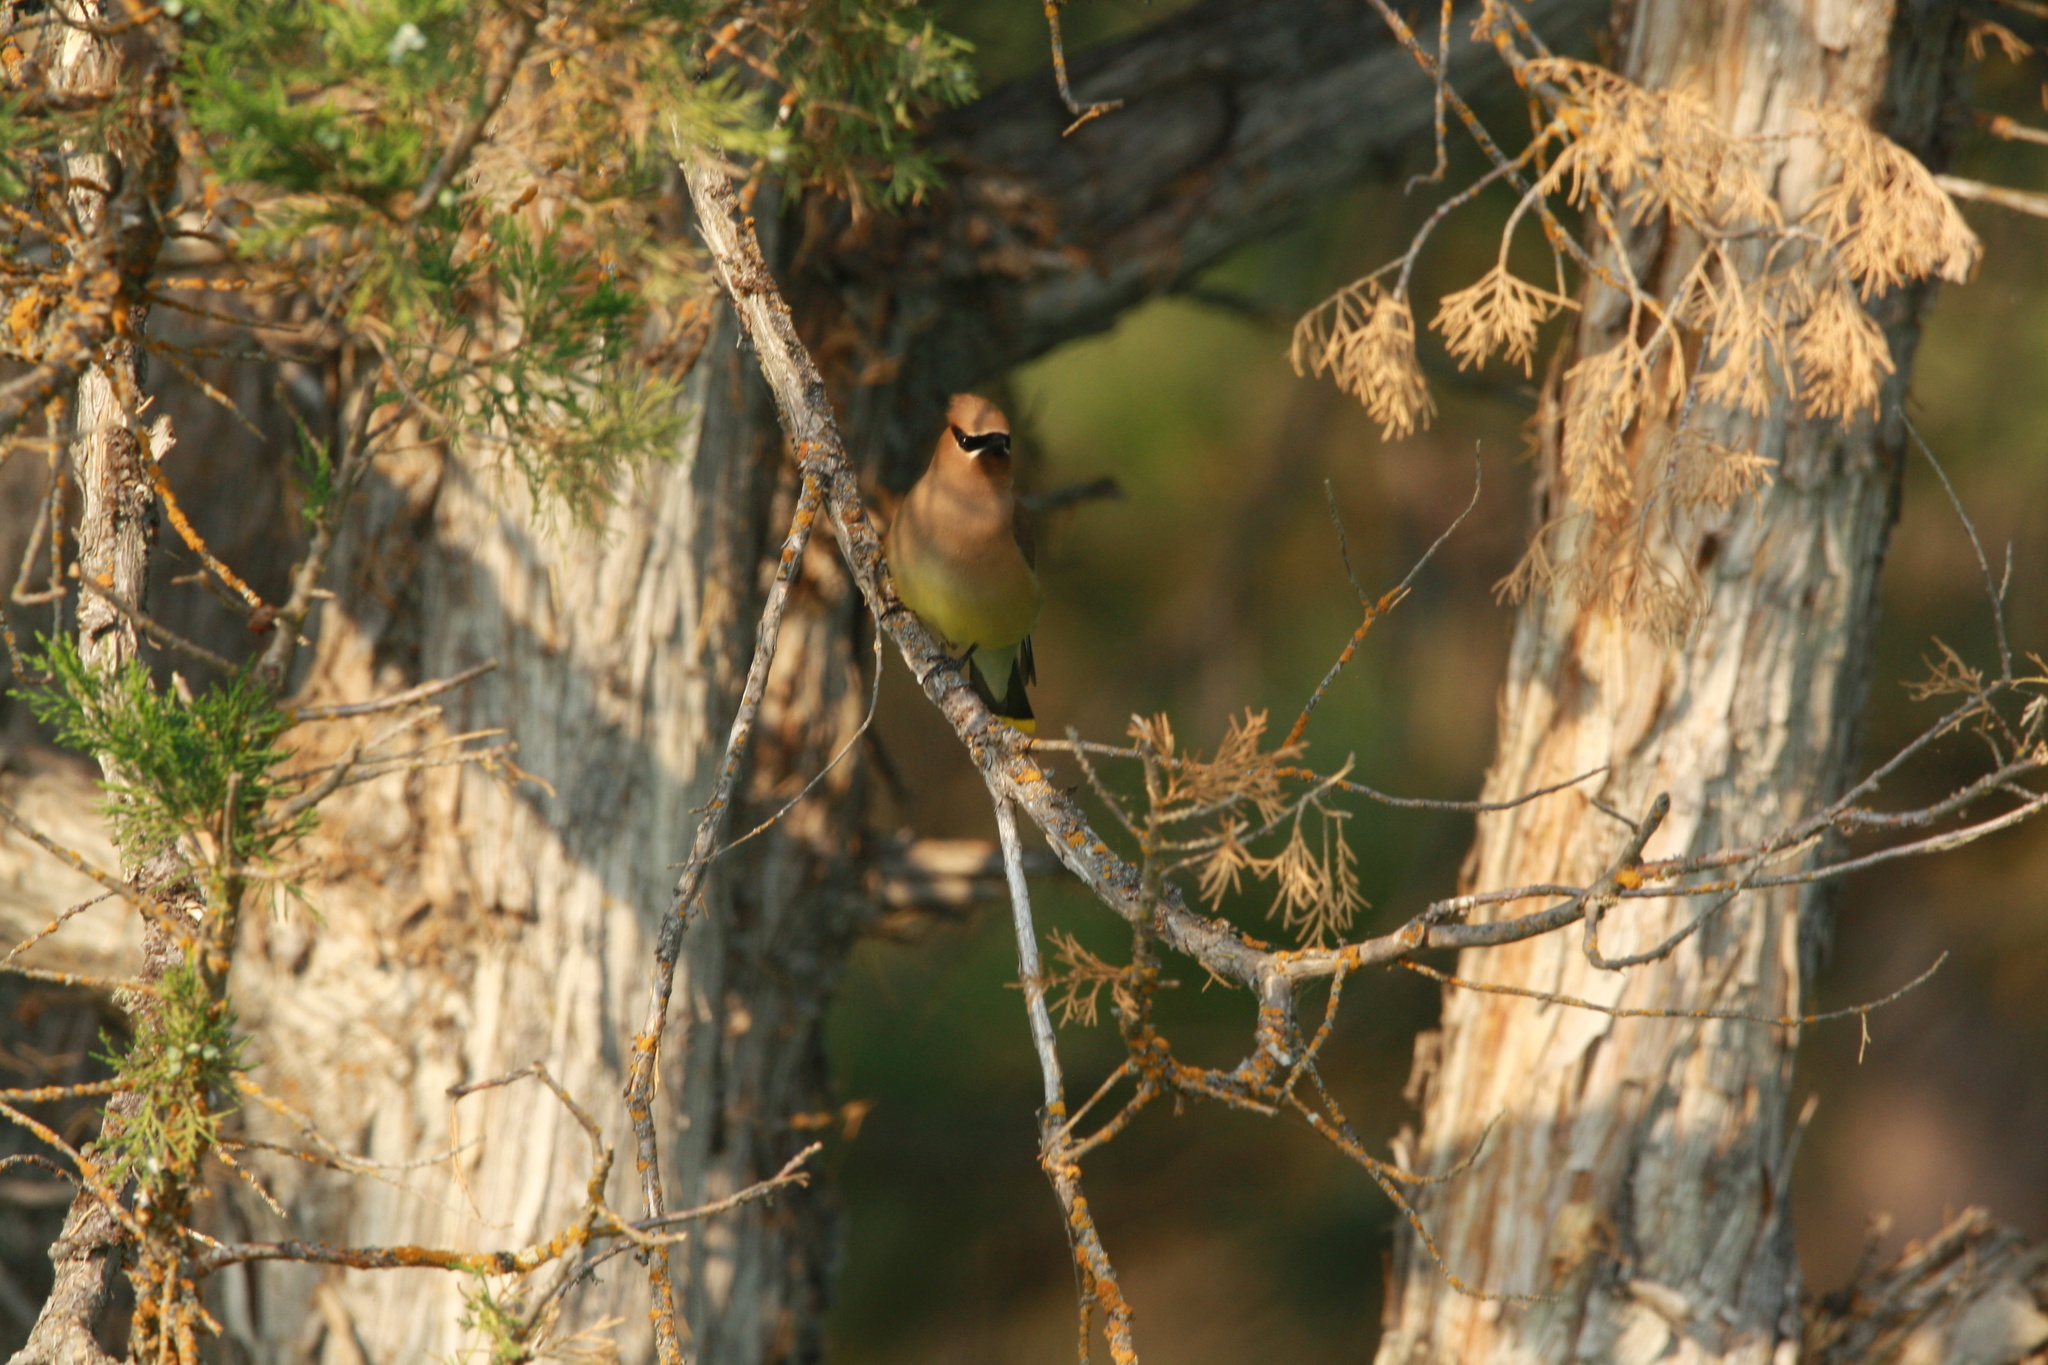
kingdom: Animalia
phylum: Chordata
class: Aves
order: Passeriformes
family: Bombycillidae
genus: Bombycilla
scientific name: Bombycilla cedrorum
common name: Cedar waxwing
